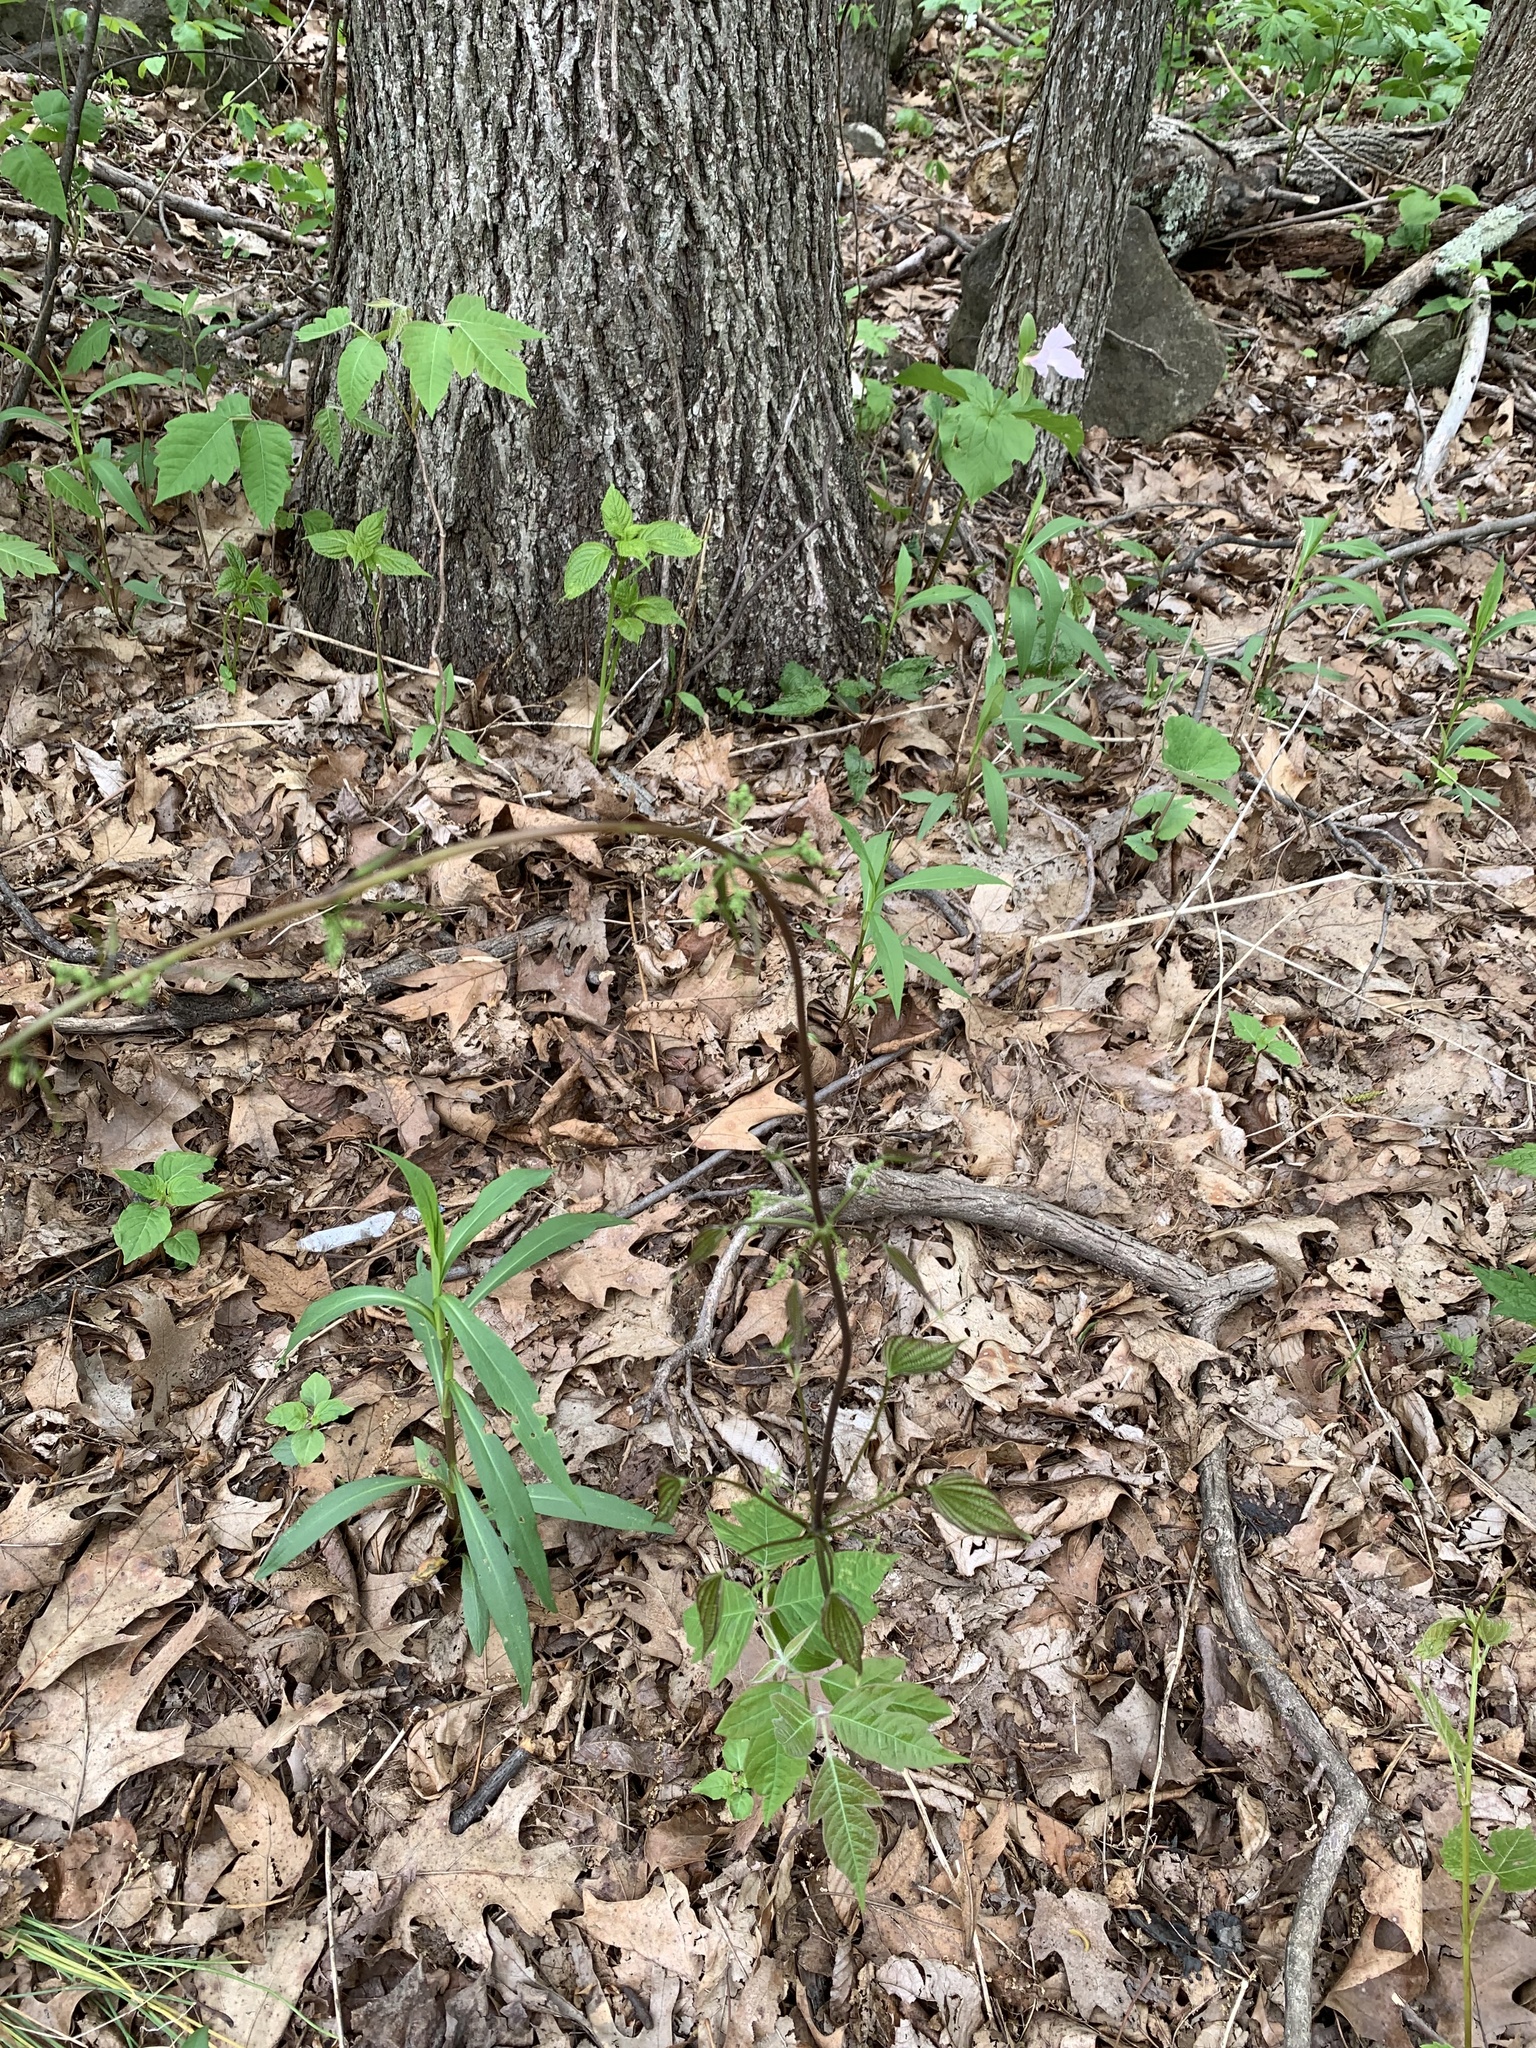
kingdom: Plantae
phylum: Tracheophyta
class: Liliopsida
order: Dioscoreales
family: Dioscoreaceae
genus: Dioscorea
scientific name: Dioscorea villosa
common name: Wild yam
